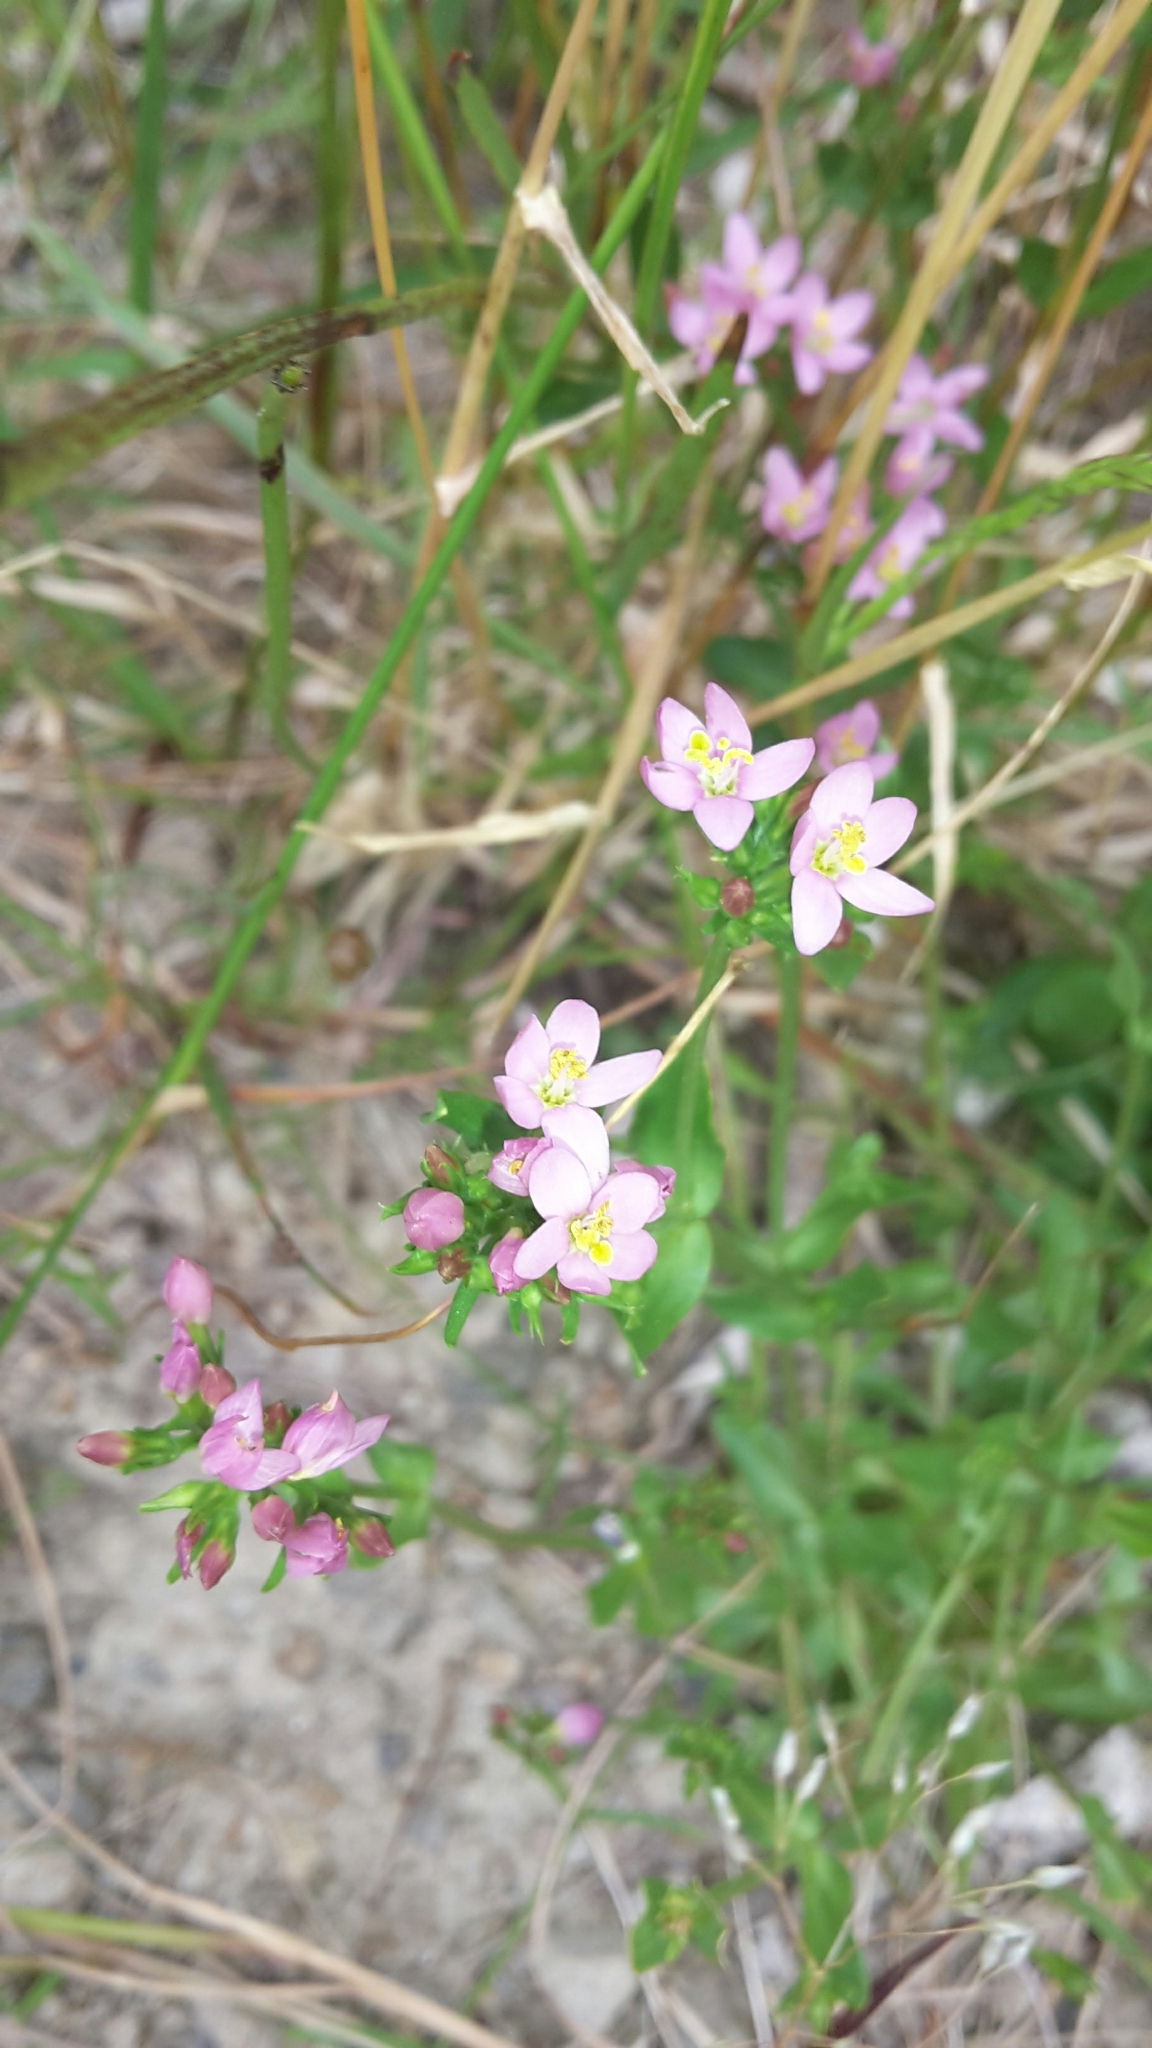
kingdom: Plantae
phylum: Tracheophyta
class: Magnoliopsida
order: Gentianales
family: Gentianaceae
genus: Centaurium
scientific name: Centaurium erythraea
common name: Common centaury
